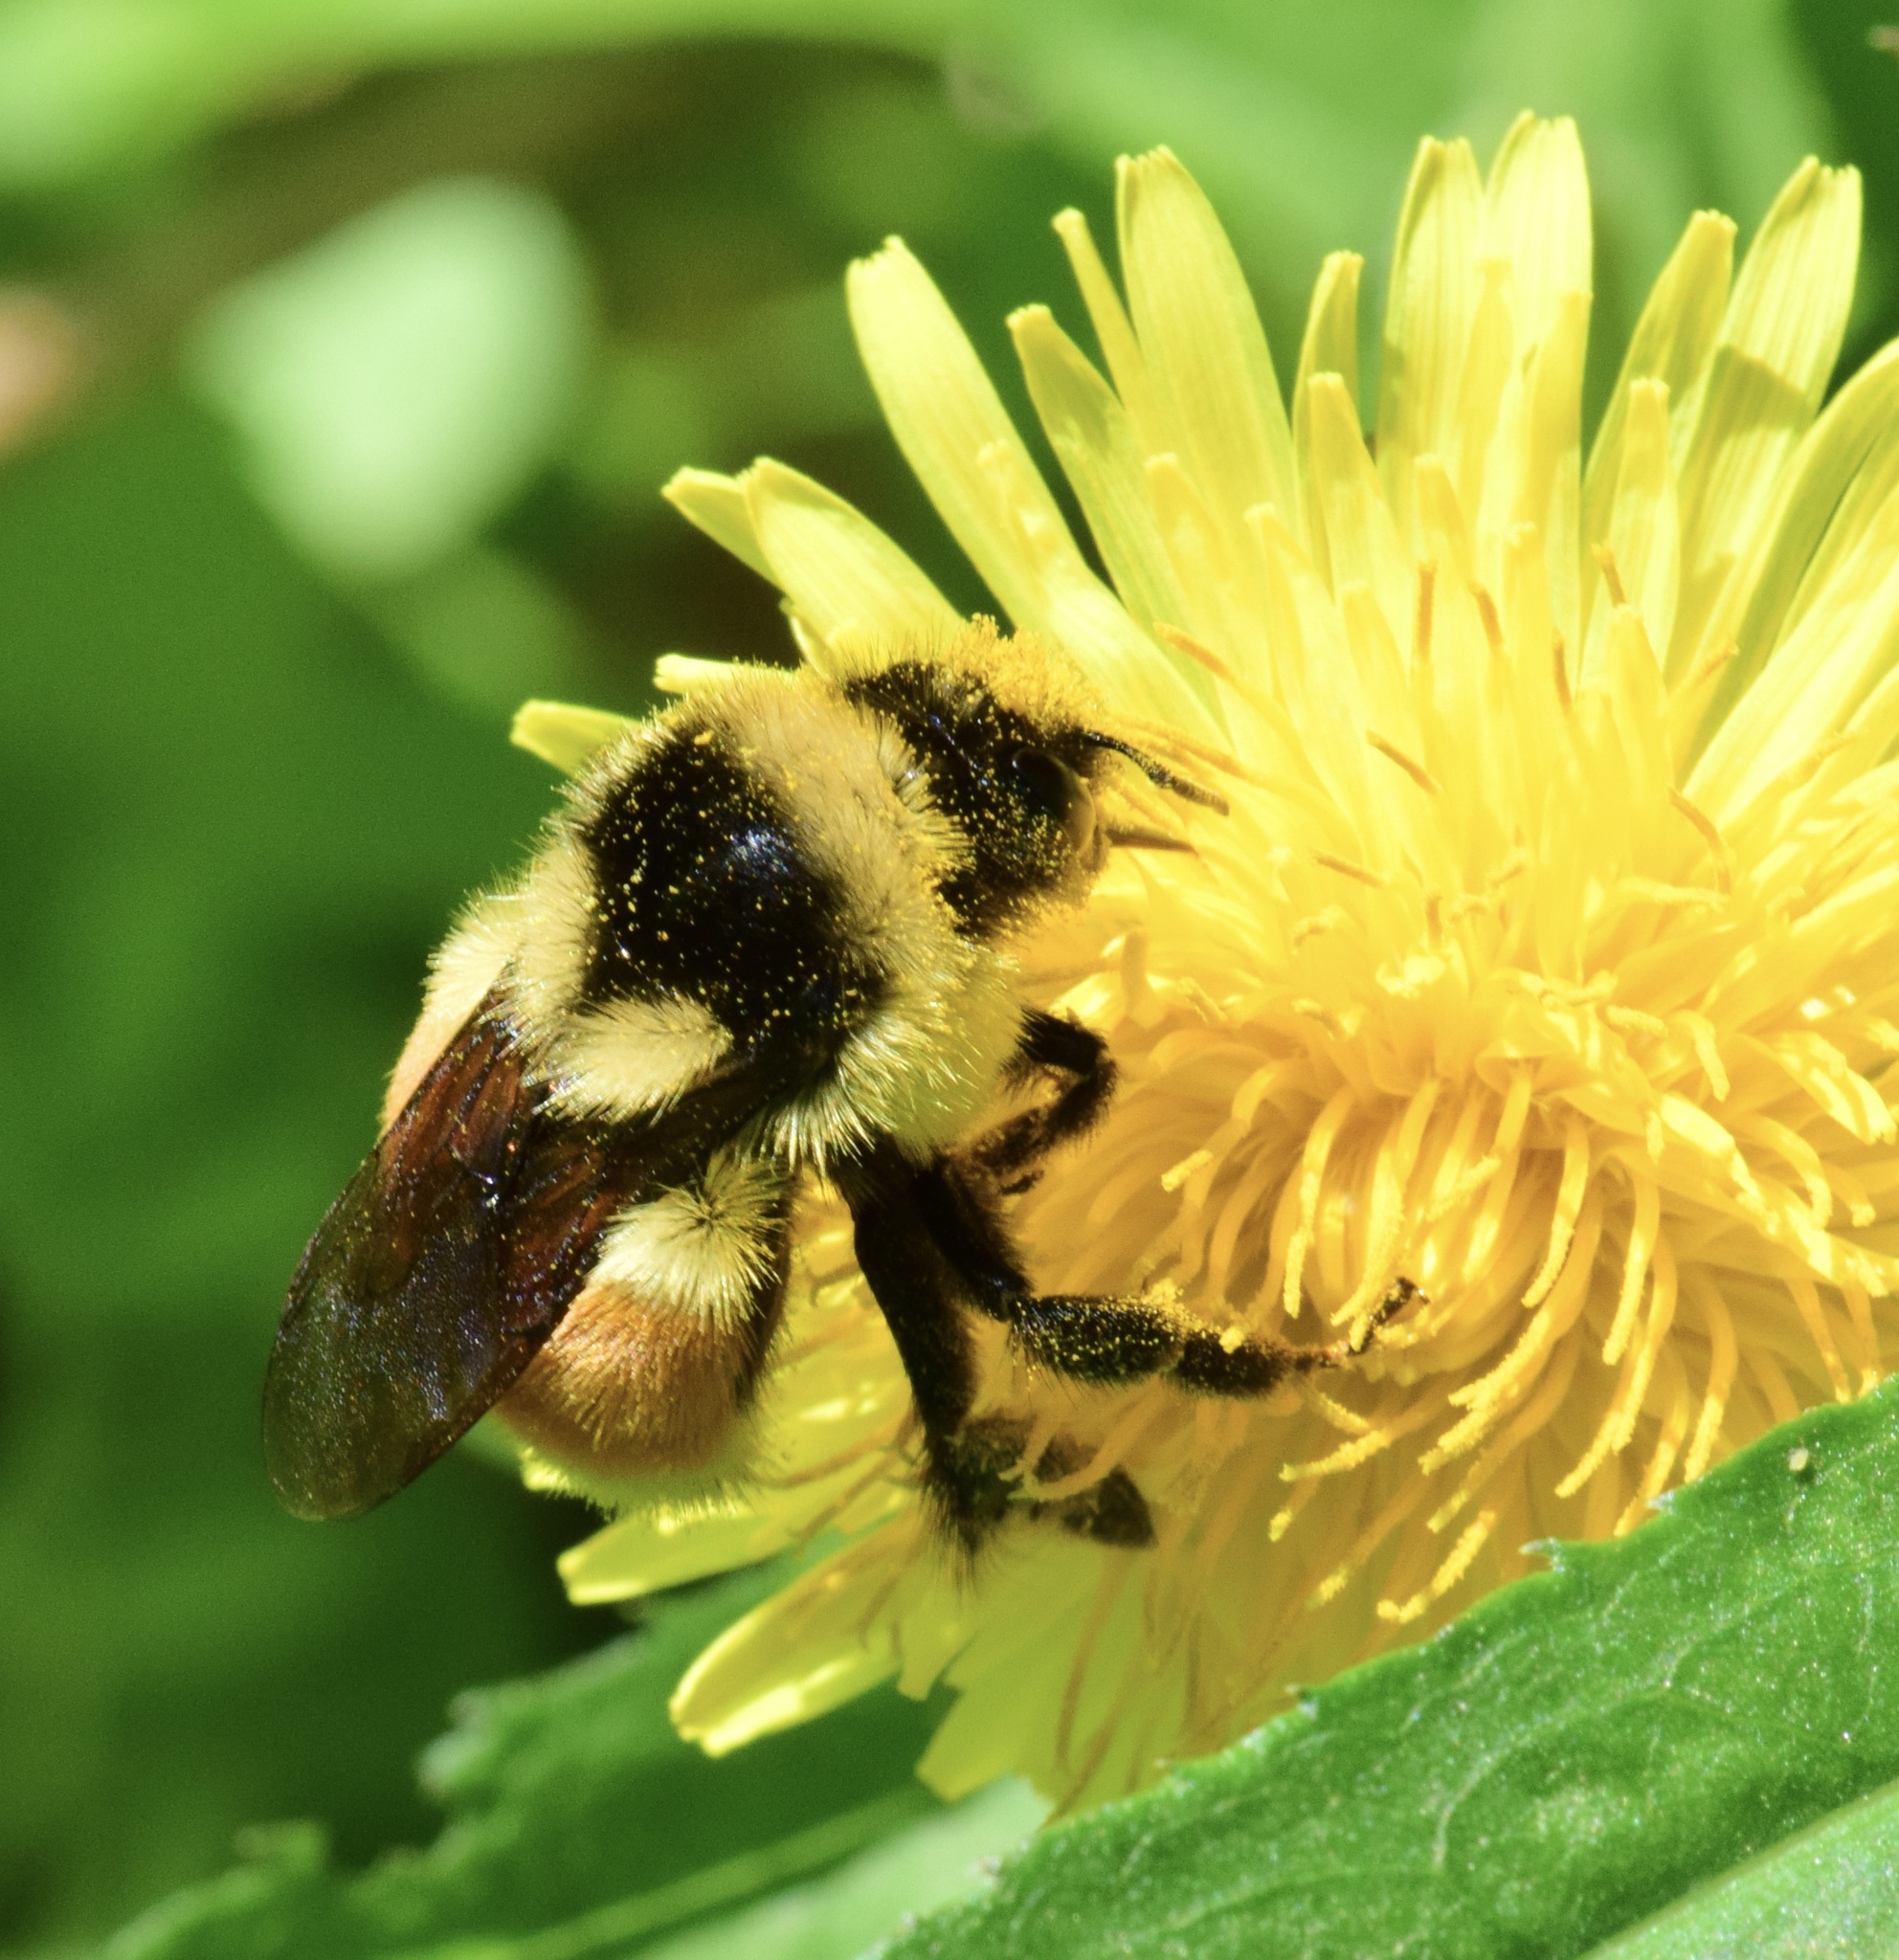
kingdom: Animalia
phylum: Arthropoda
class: Insecta
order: Hymenoptera
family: Apidae
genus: Bombus
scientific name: Bombus ternarius
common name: Tri-colored bumble bee
